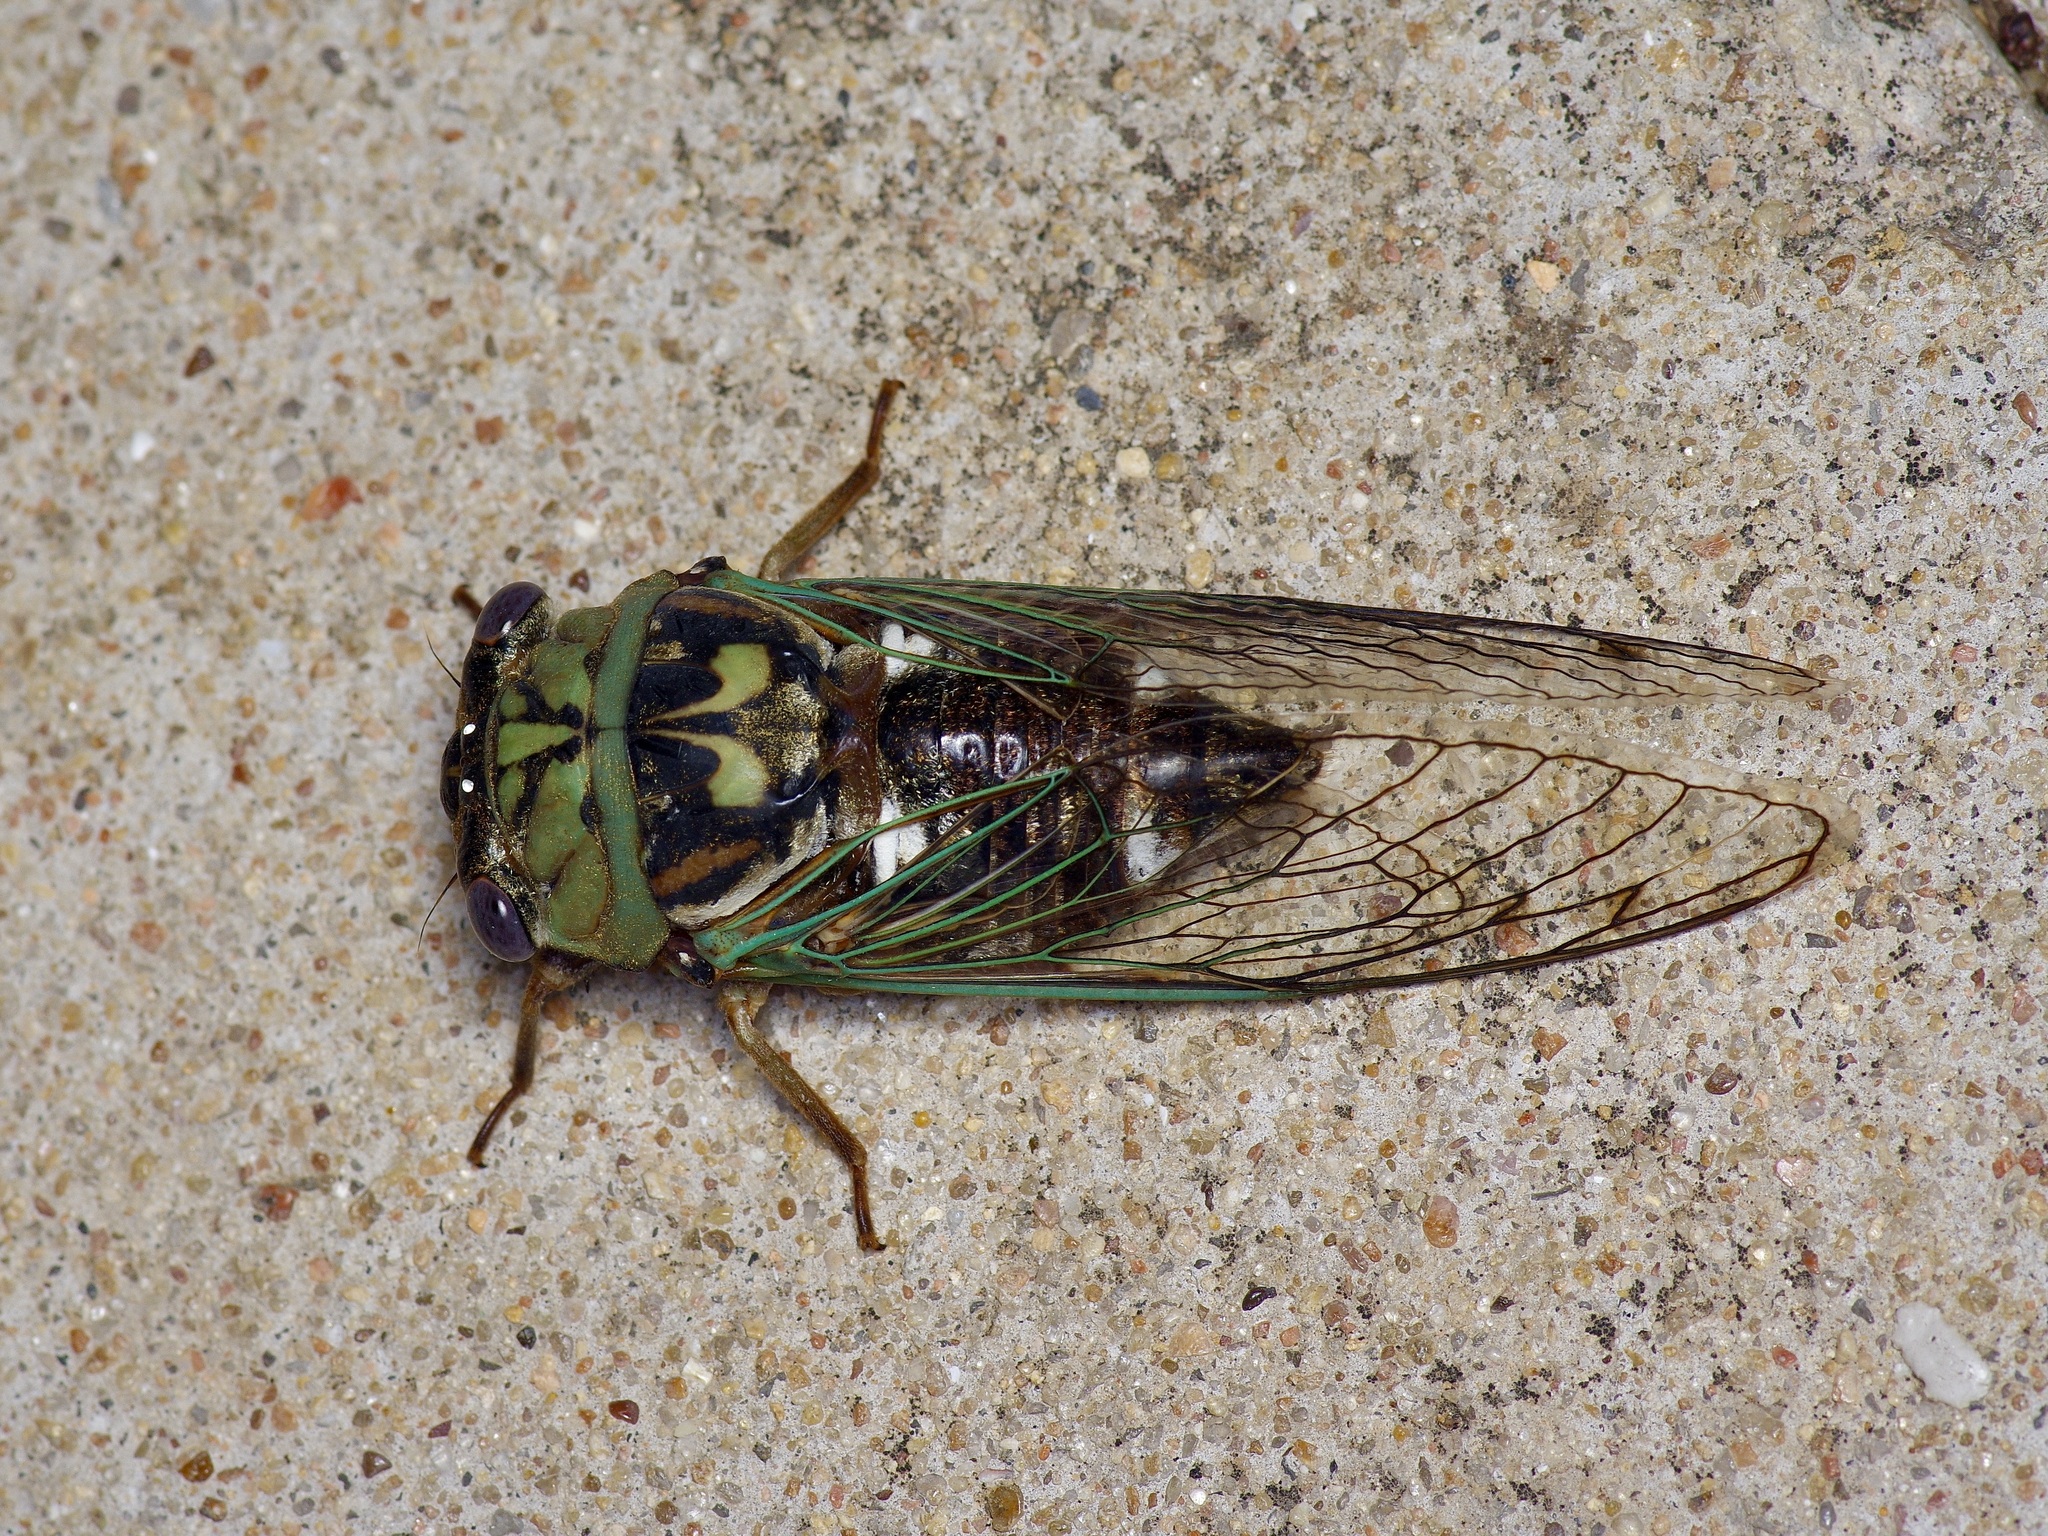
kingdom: Animalia
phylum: Arthropoda
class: Insecta
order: Hemiptera
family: Cicadidae
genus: Megatibicen
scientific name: Megatibicen resh
